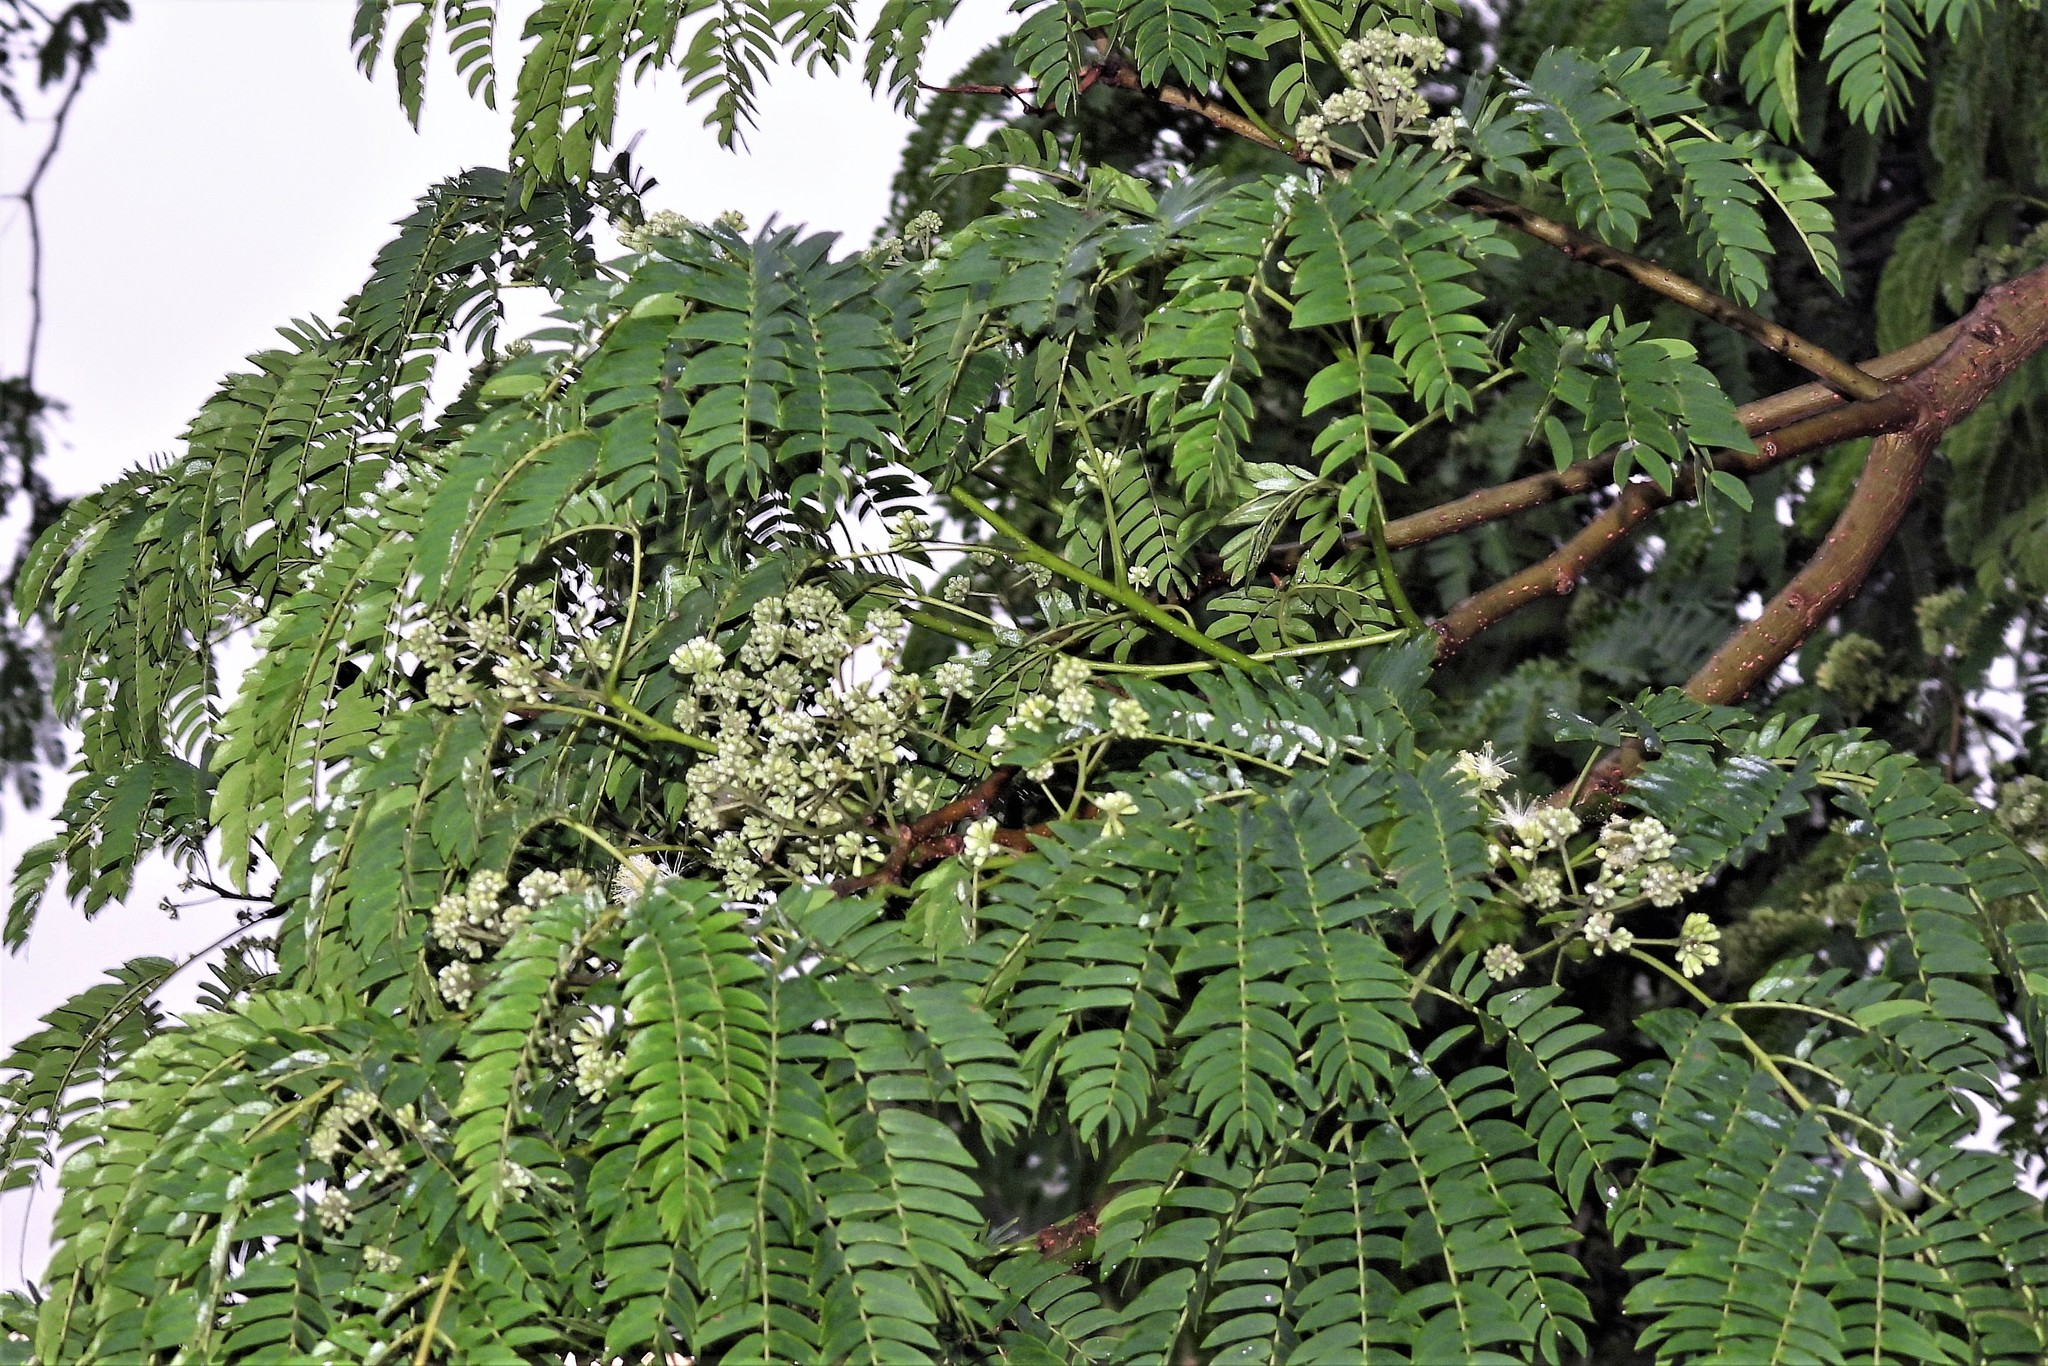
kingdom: Plantae
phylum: Tracheophyta
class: Magnoliopsida
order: Fabales
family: Fabaceae
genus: Enterolobium
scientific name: Enterolobium contortisiliquum
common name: Pacara earpod tree
